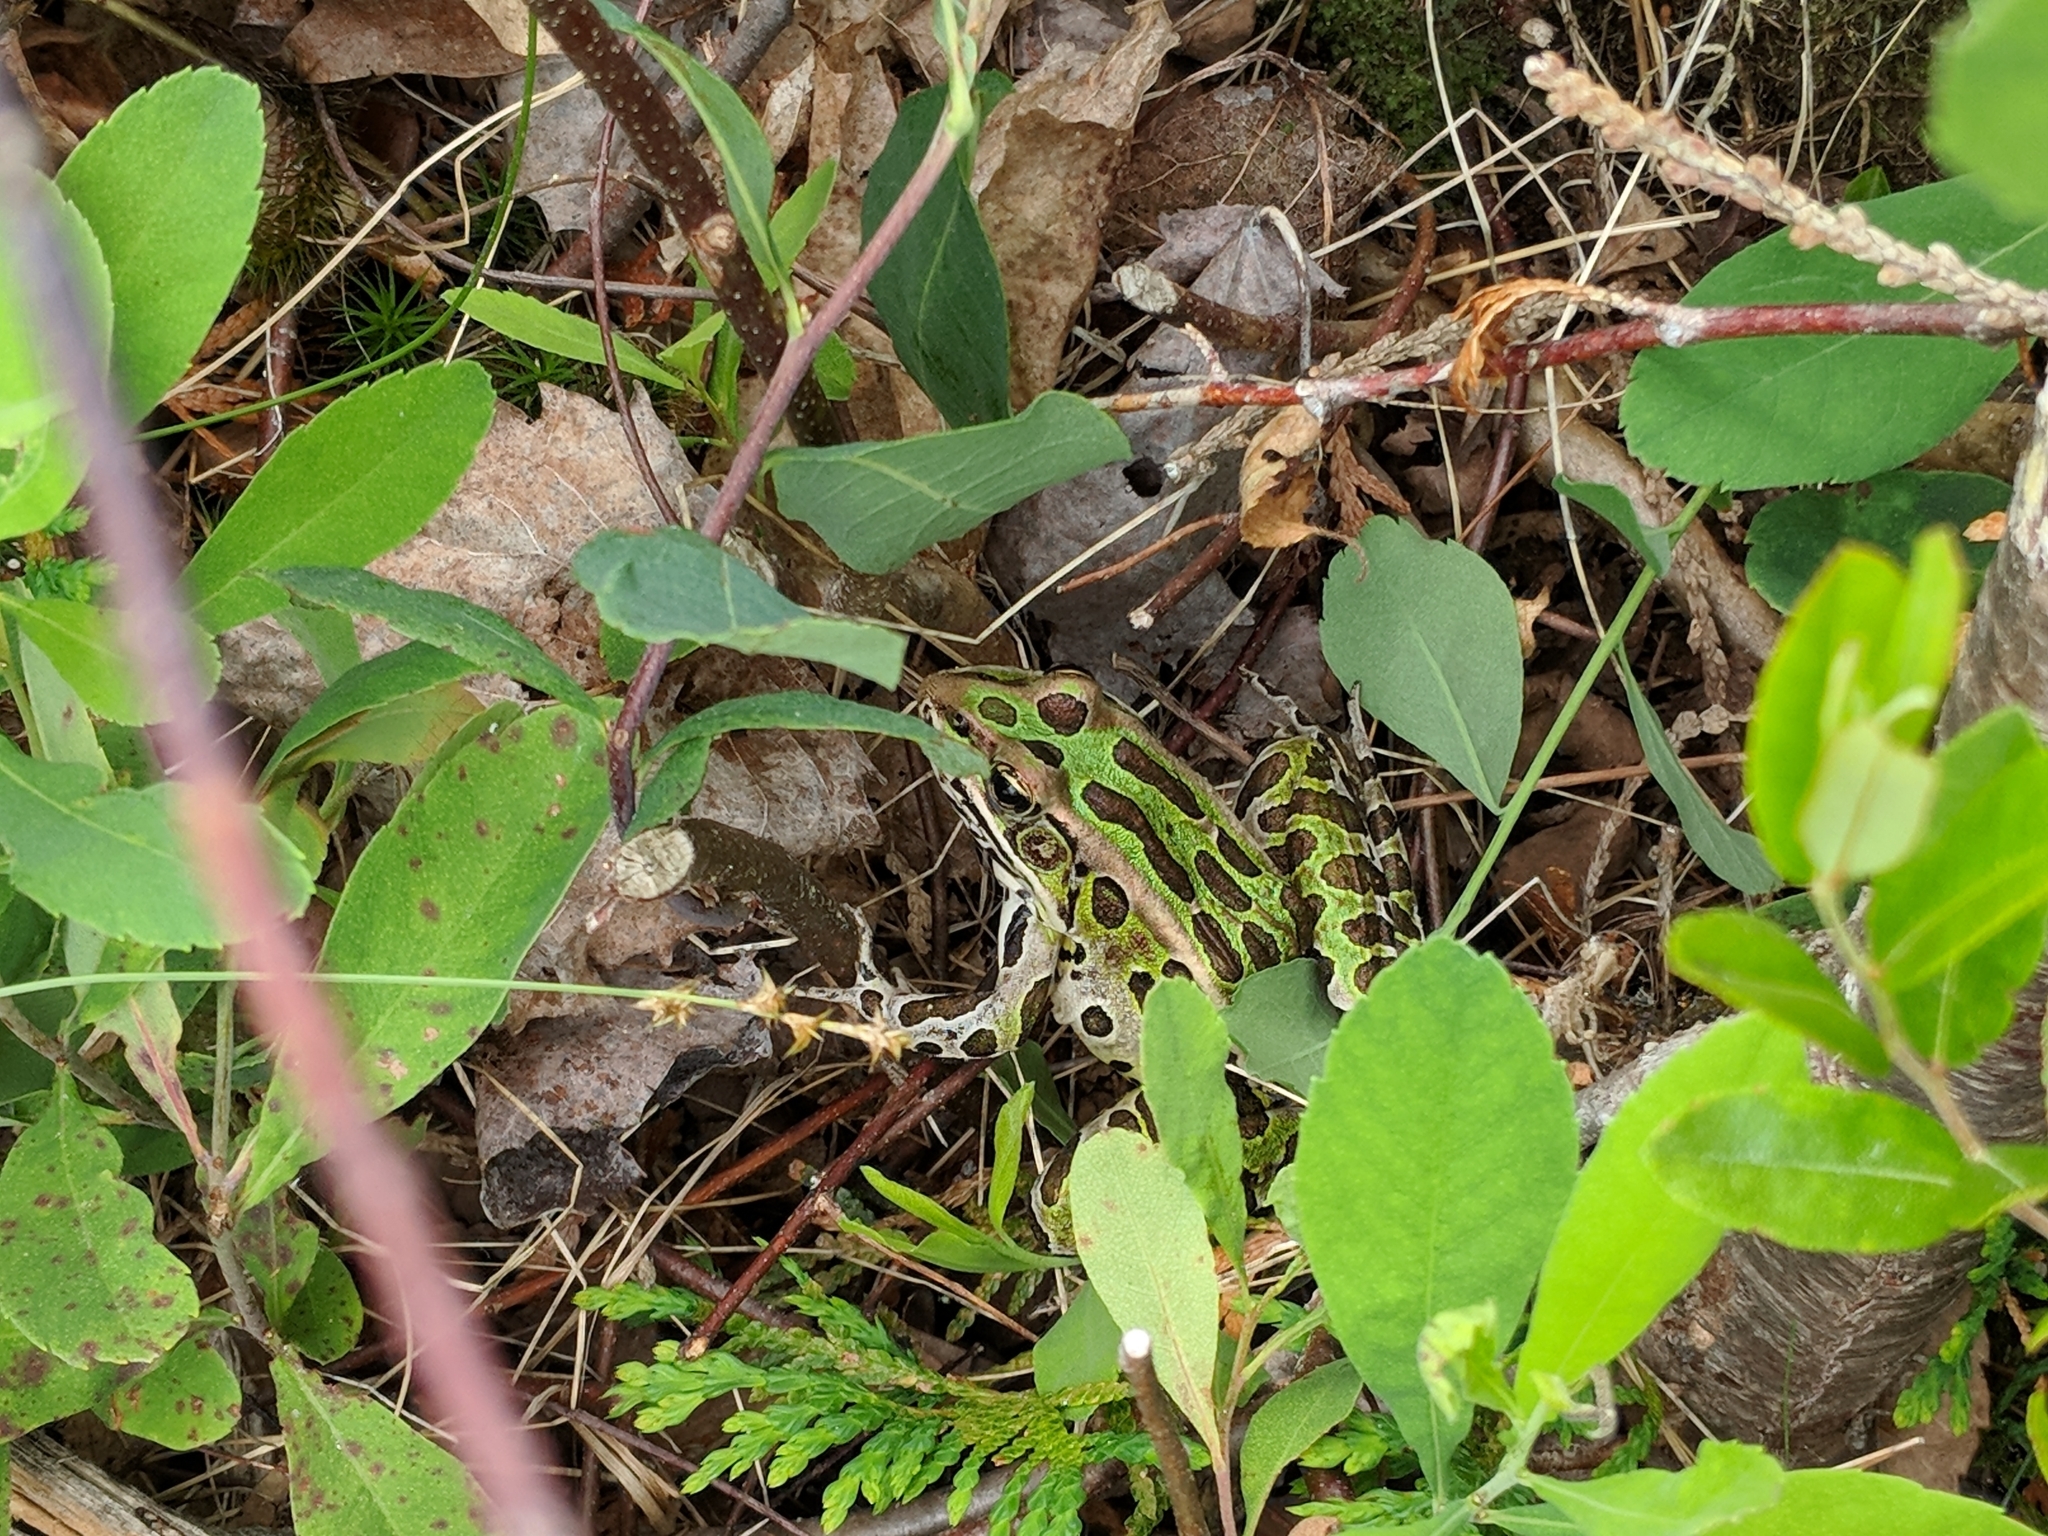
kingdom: Animalia
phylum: Chordata
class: Amphibia
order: Anura
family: Ranidae
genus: Lithobates
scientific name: Lithobates pipiens
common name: Northern leopard frog
